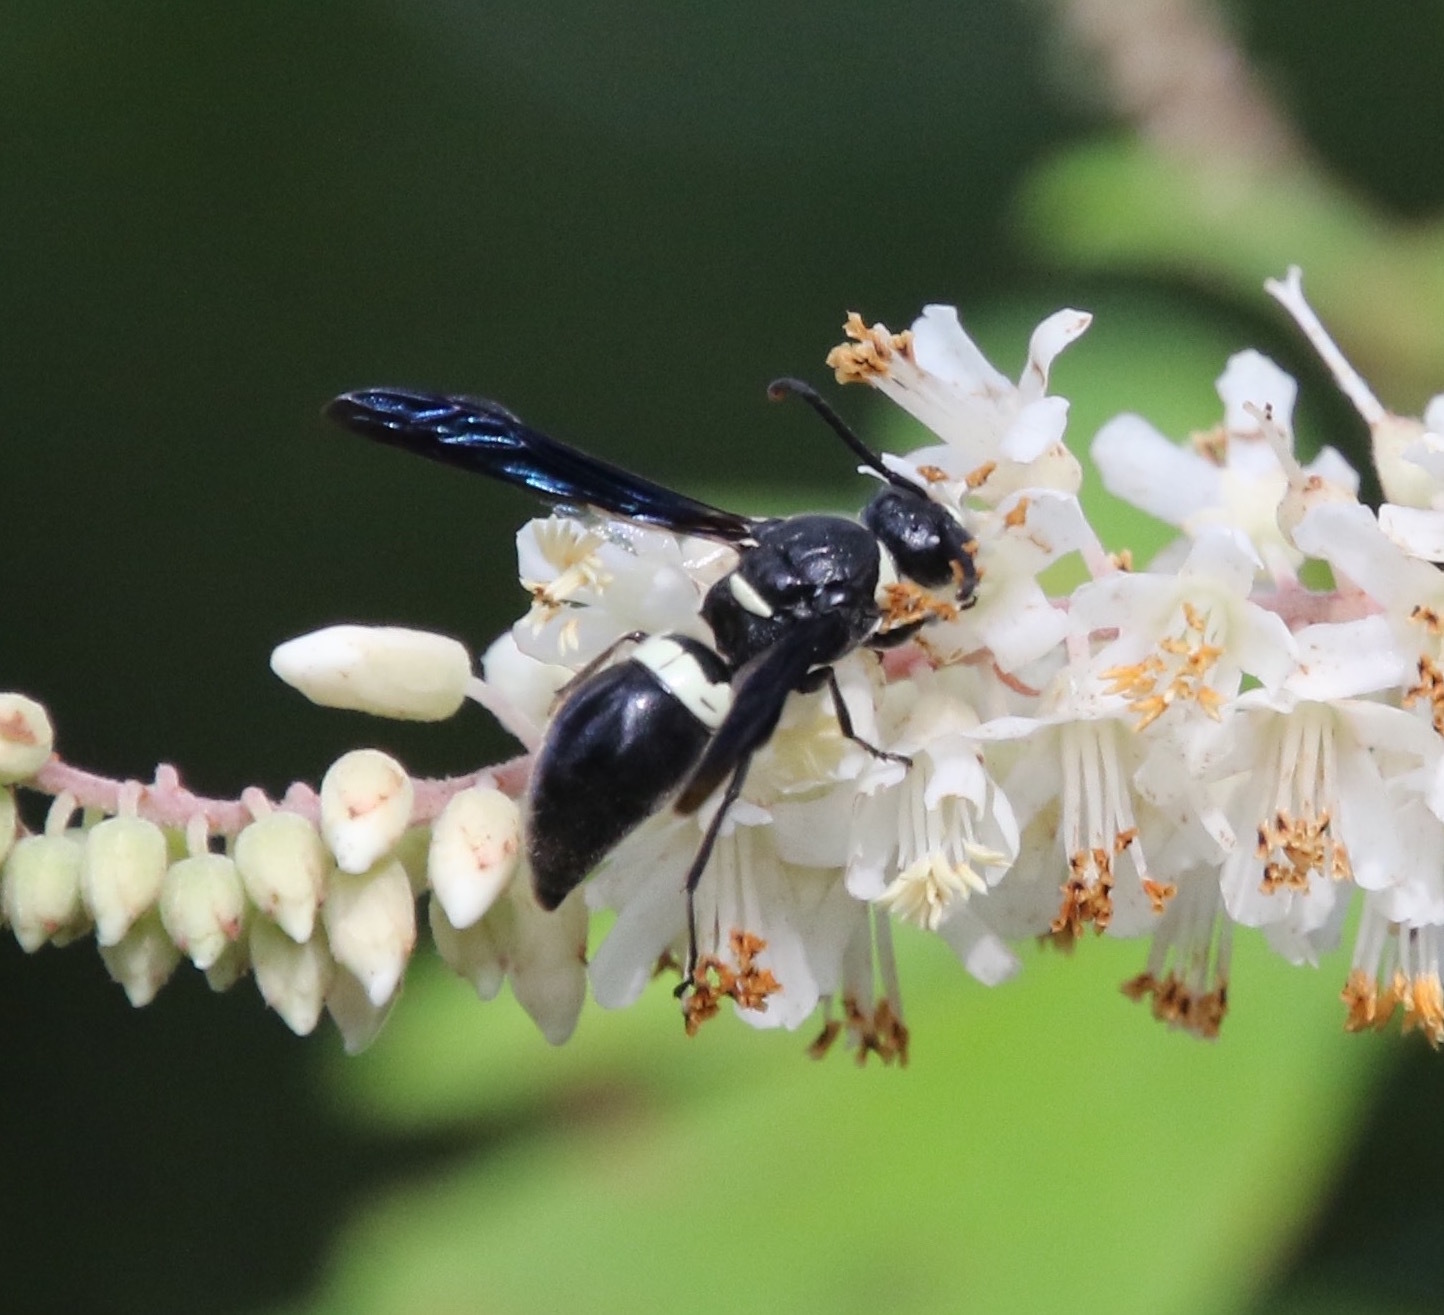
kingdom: Animalia
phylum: Arthropoda
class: Insecta
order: Hymenoptera
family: Eumenidae
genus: Monobia
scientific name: Monobia quadridens
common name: Four-toothed mason wasp
